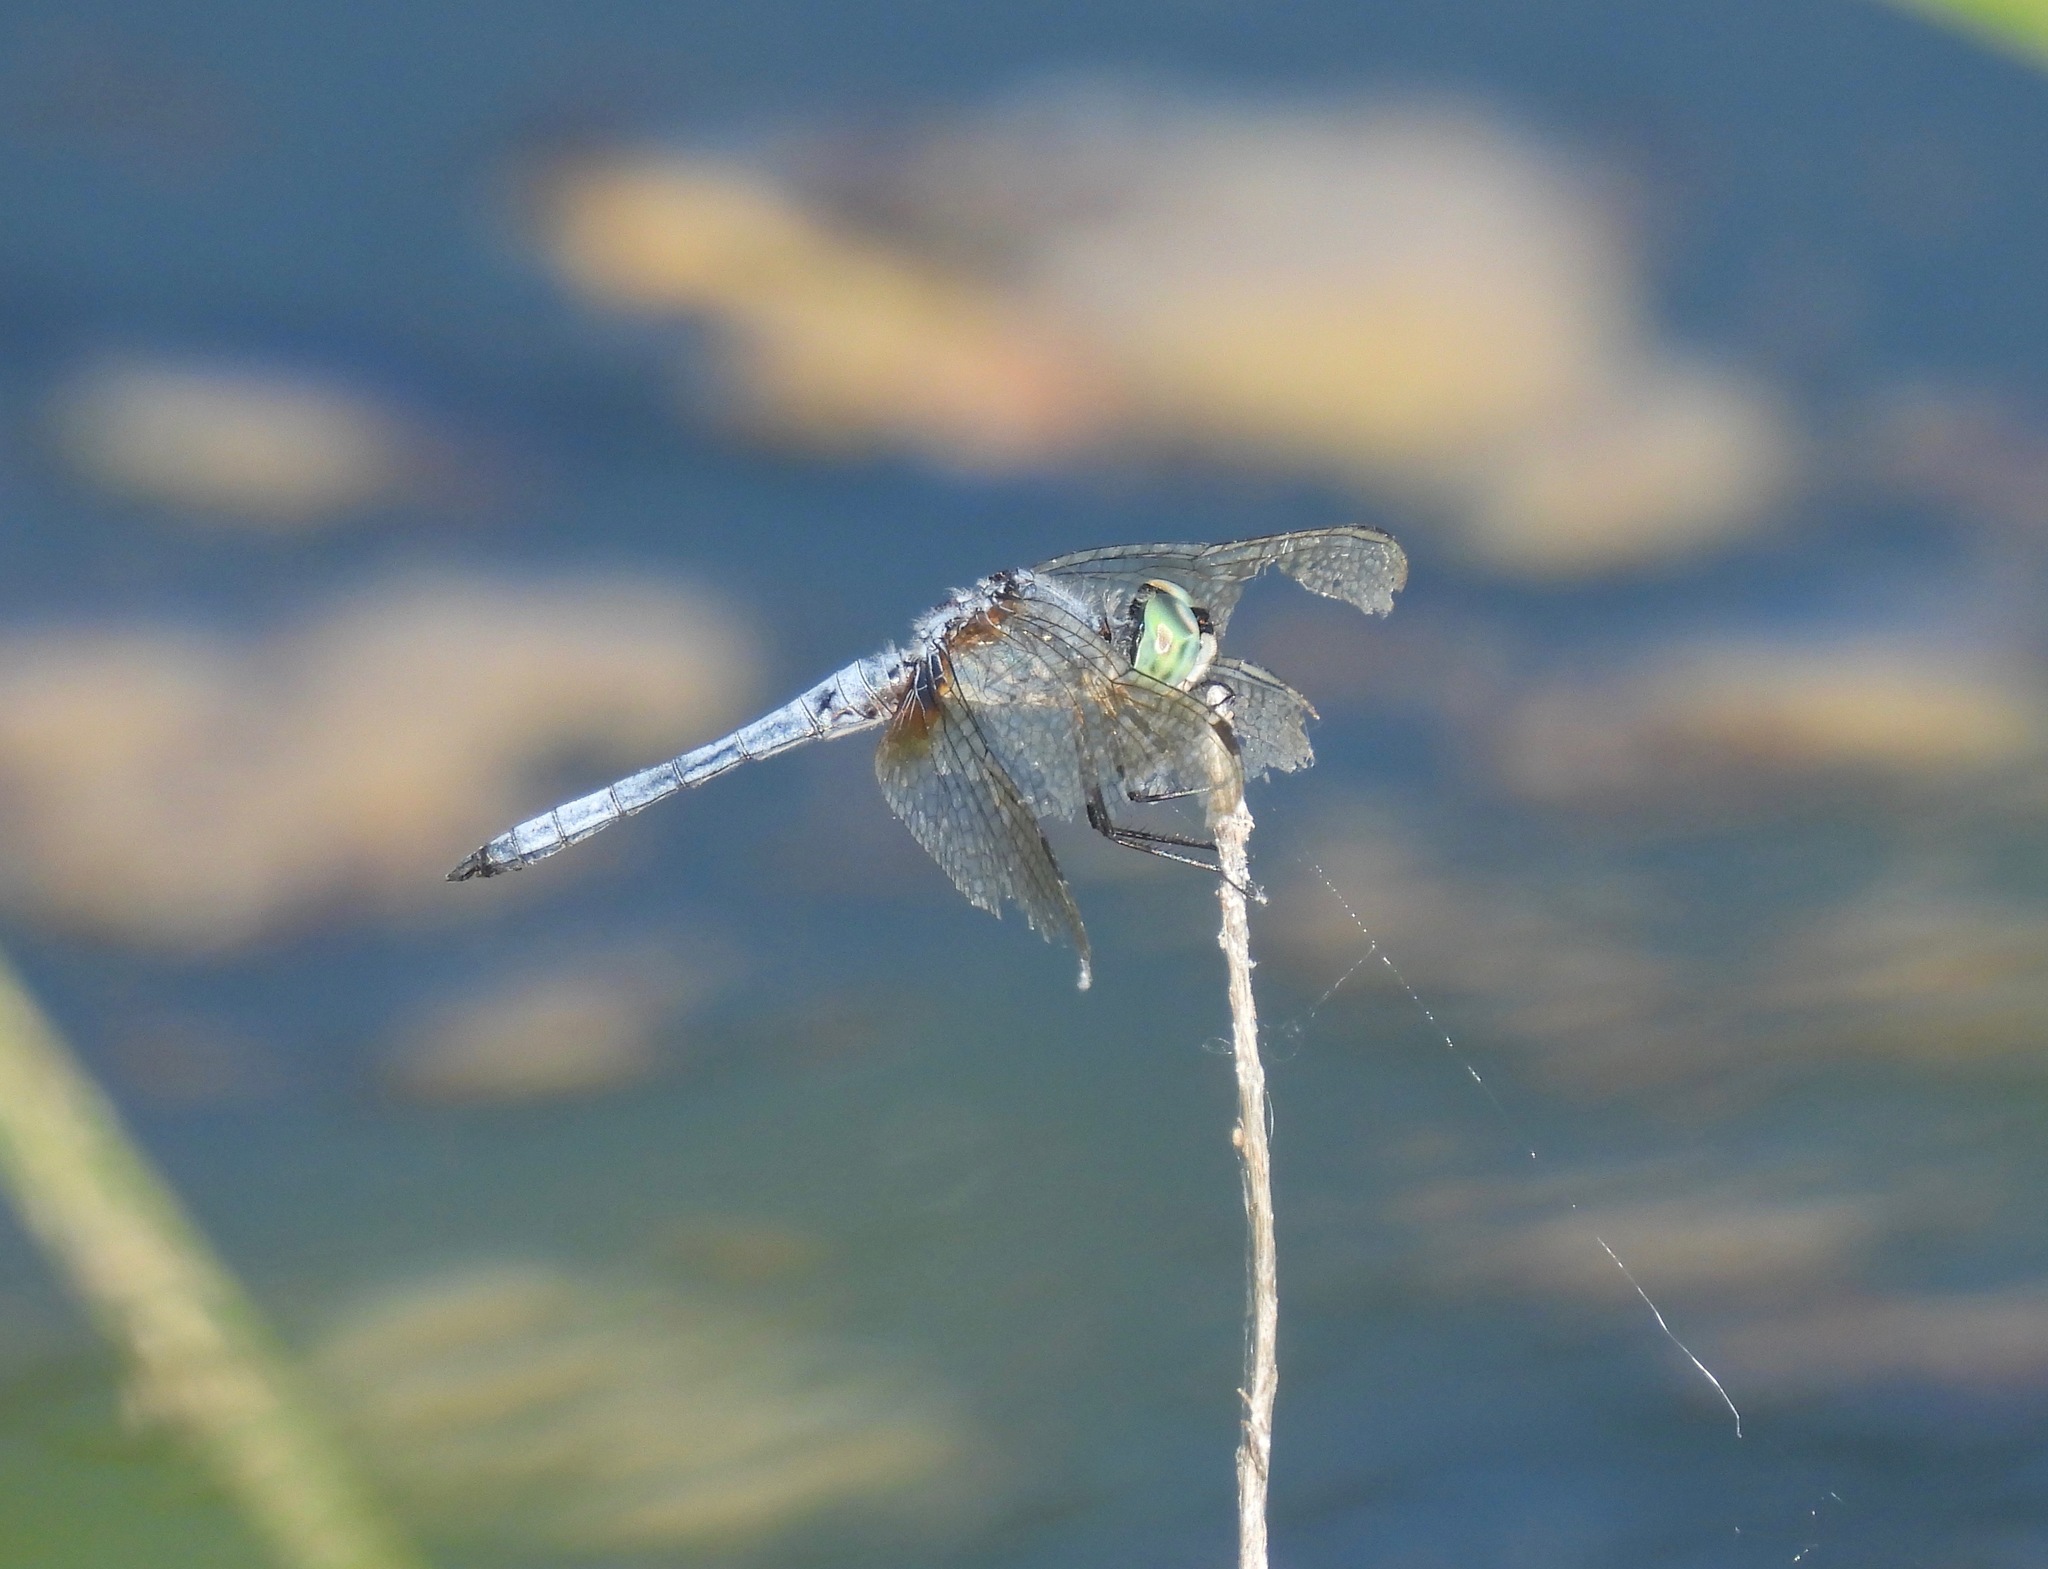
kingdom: Animalia
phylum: Arthropoda
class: Insecta
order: Odonata
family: Libellulidae
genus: Pachydiplax
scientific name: Pachydiplax longipennis
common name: Blue dasher
